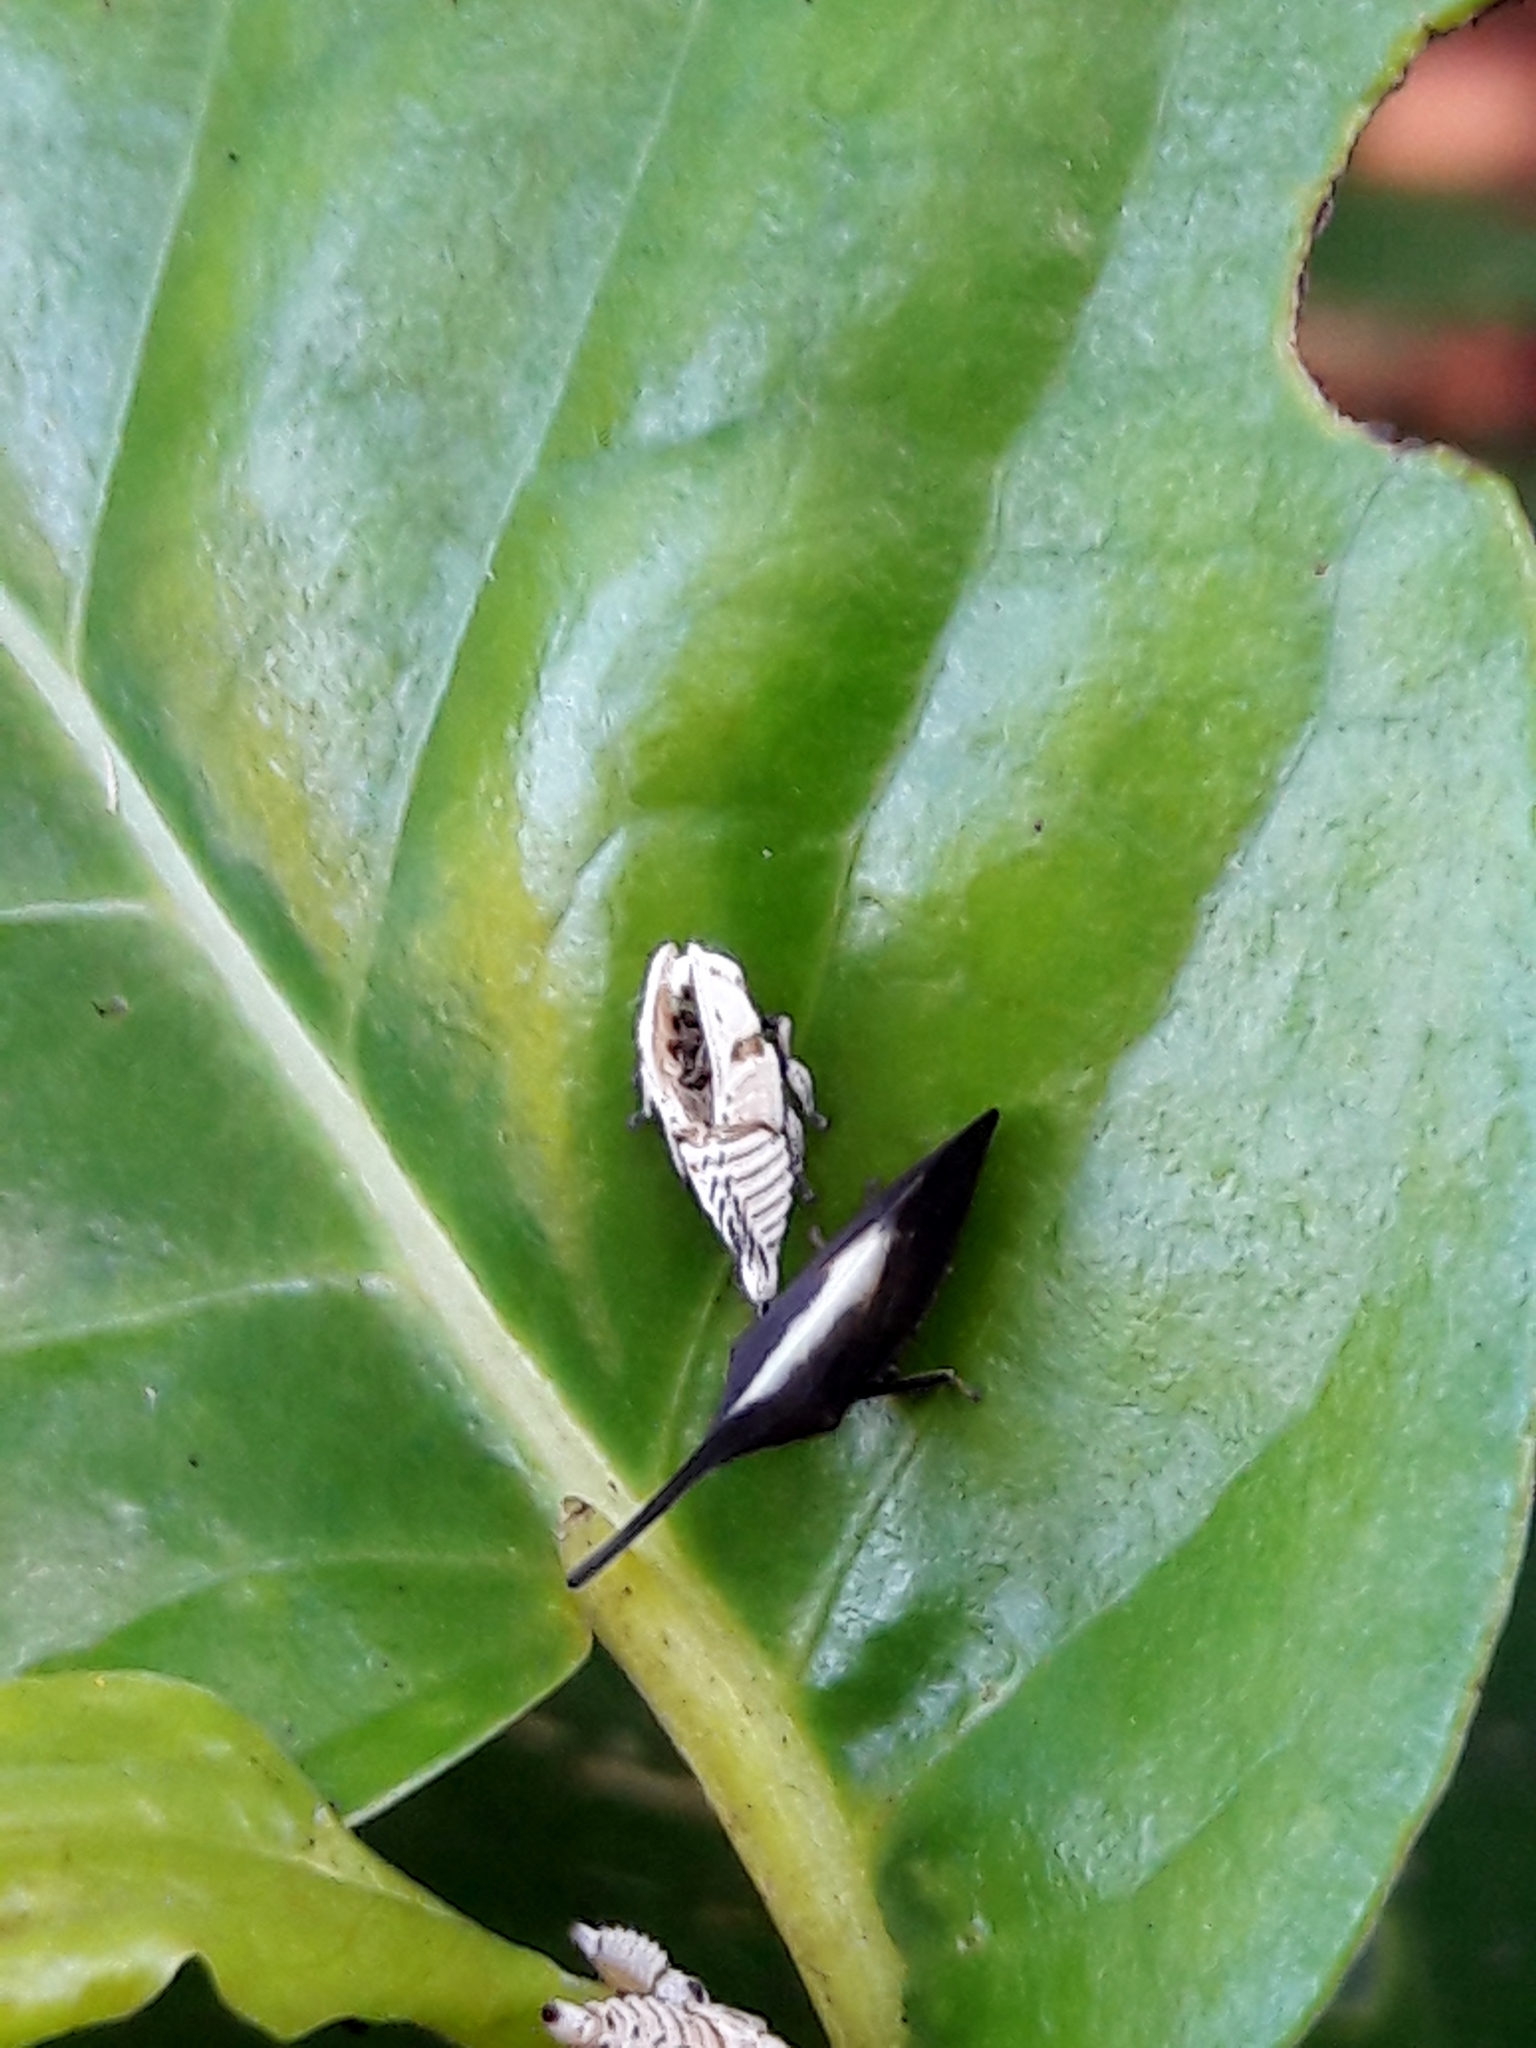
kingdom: Animalia
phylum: Arthropoda
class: Insecta
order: Hemiptera
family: Membracidae
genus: Enchenopa
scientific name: Enchenopa albidorsa
